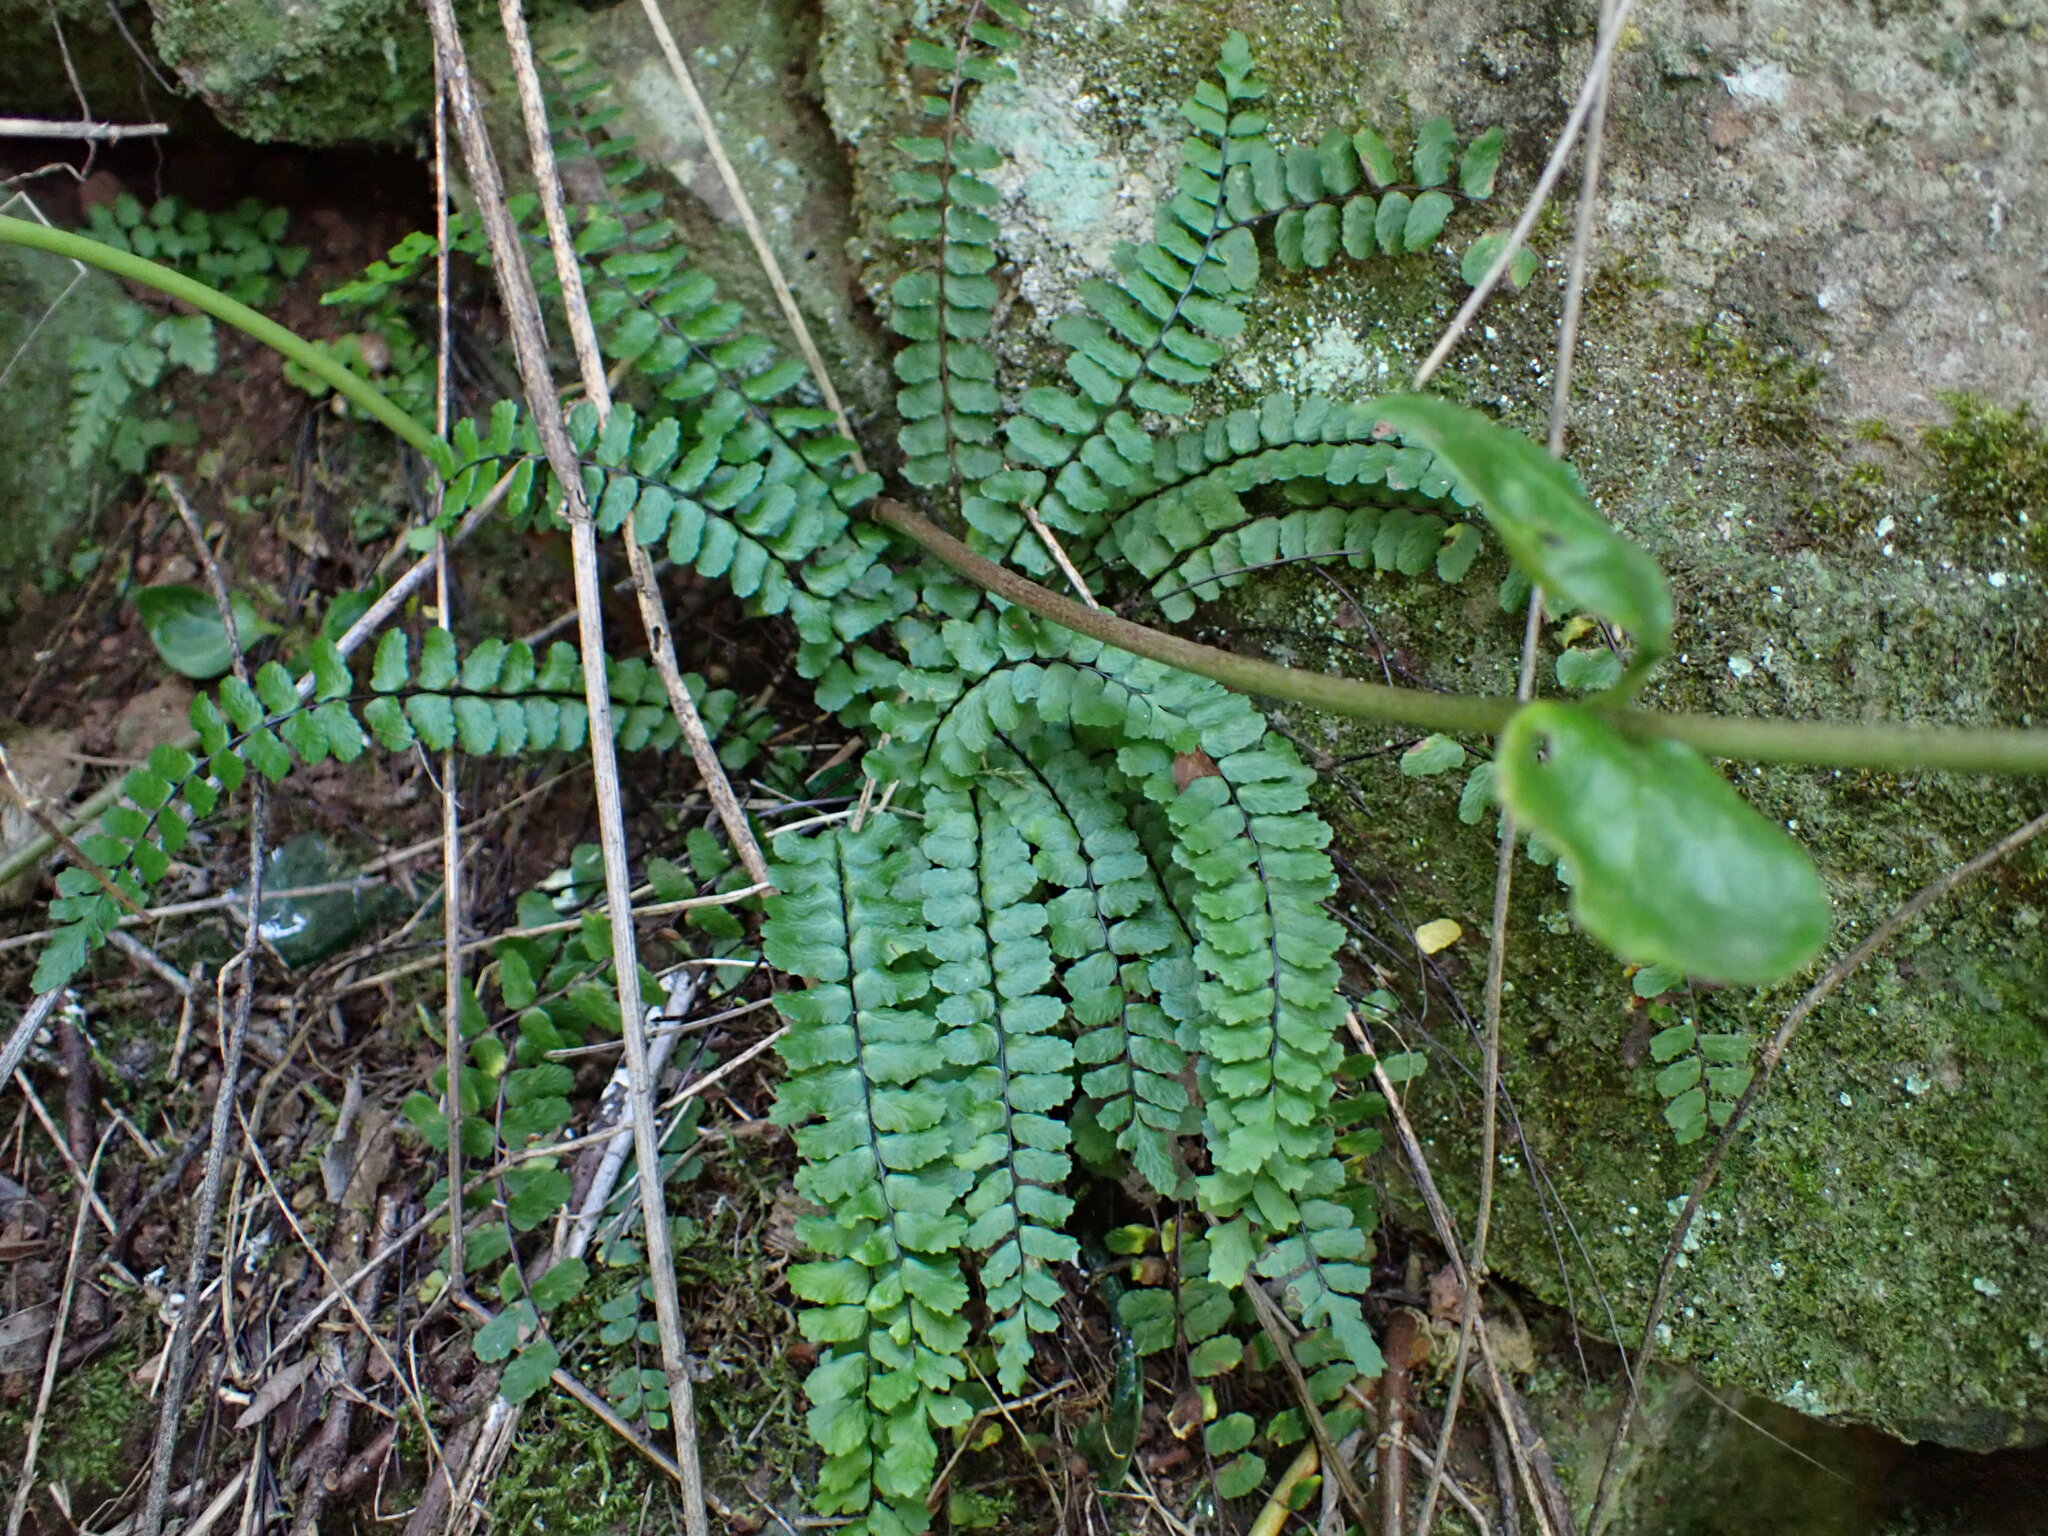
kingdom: Plantae
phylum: Tracheophyta
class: Polypodiopsida
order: Polypodiales
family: Aspleniaceae
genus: Asplenium
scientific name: Asplenium trichomanes
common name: Maidenhair spleenwort
